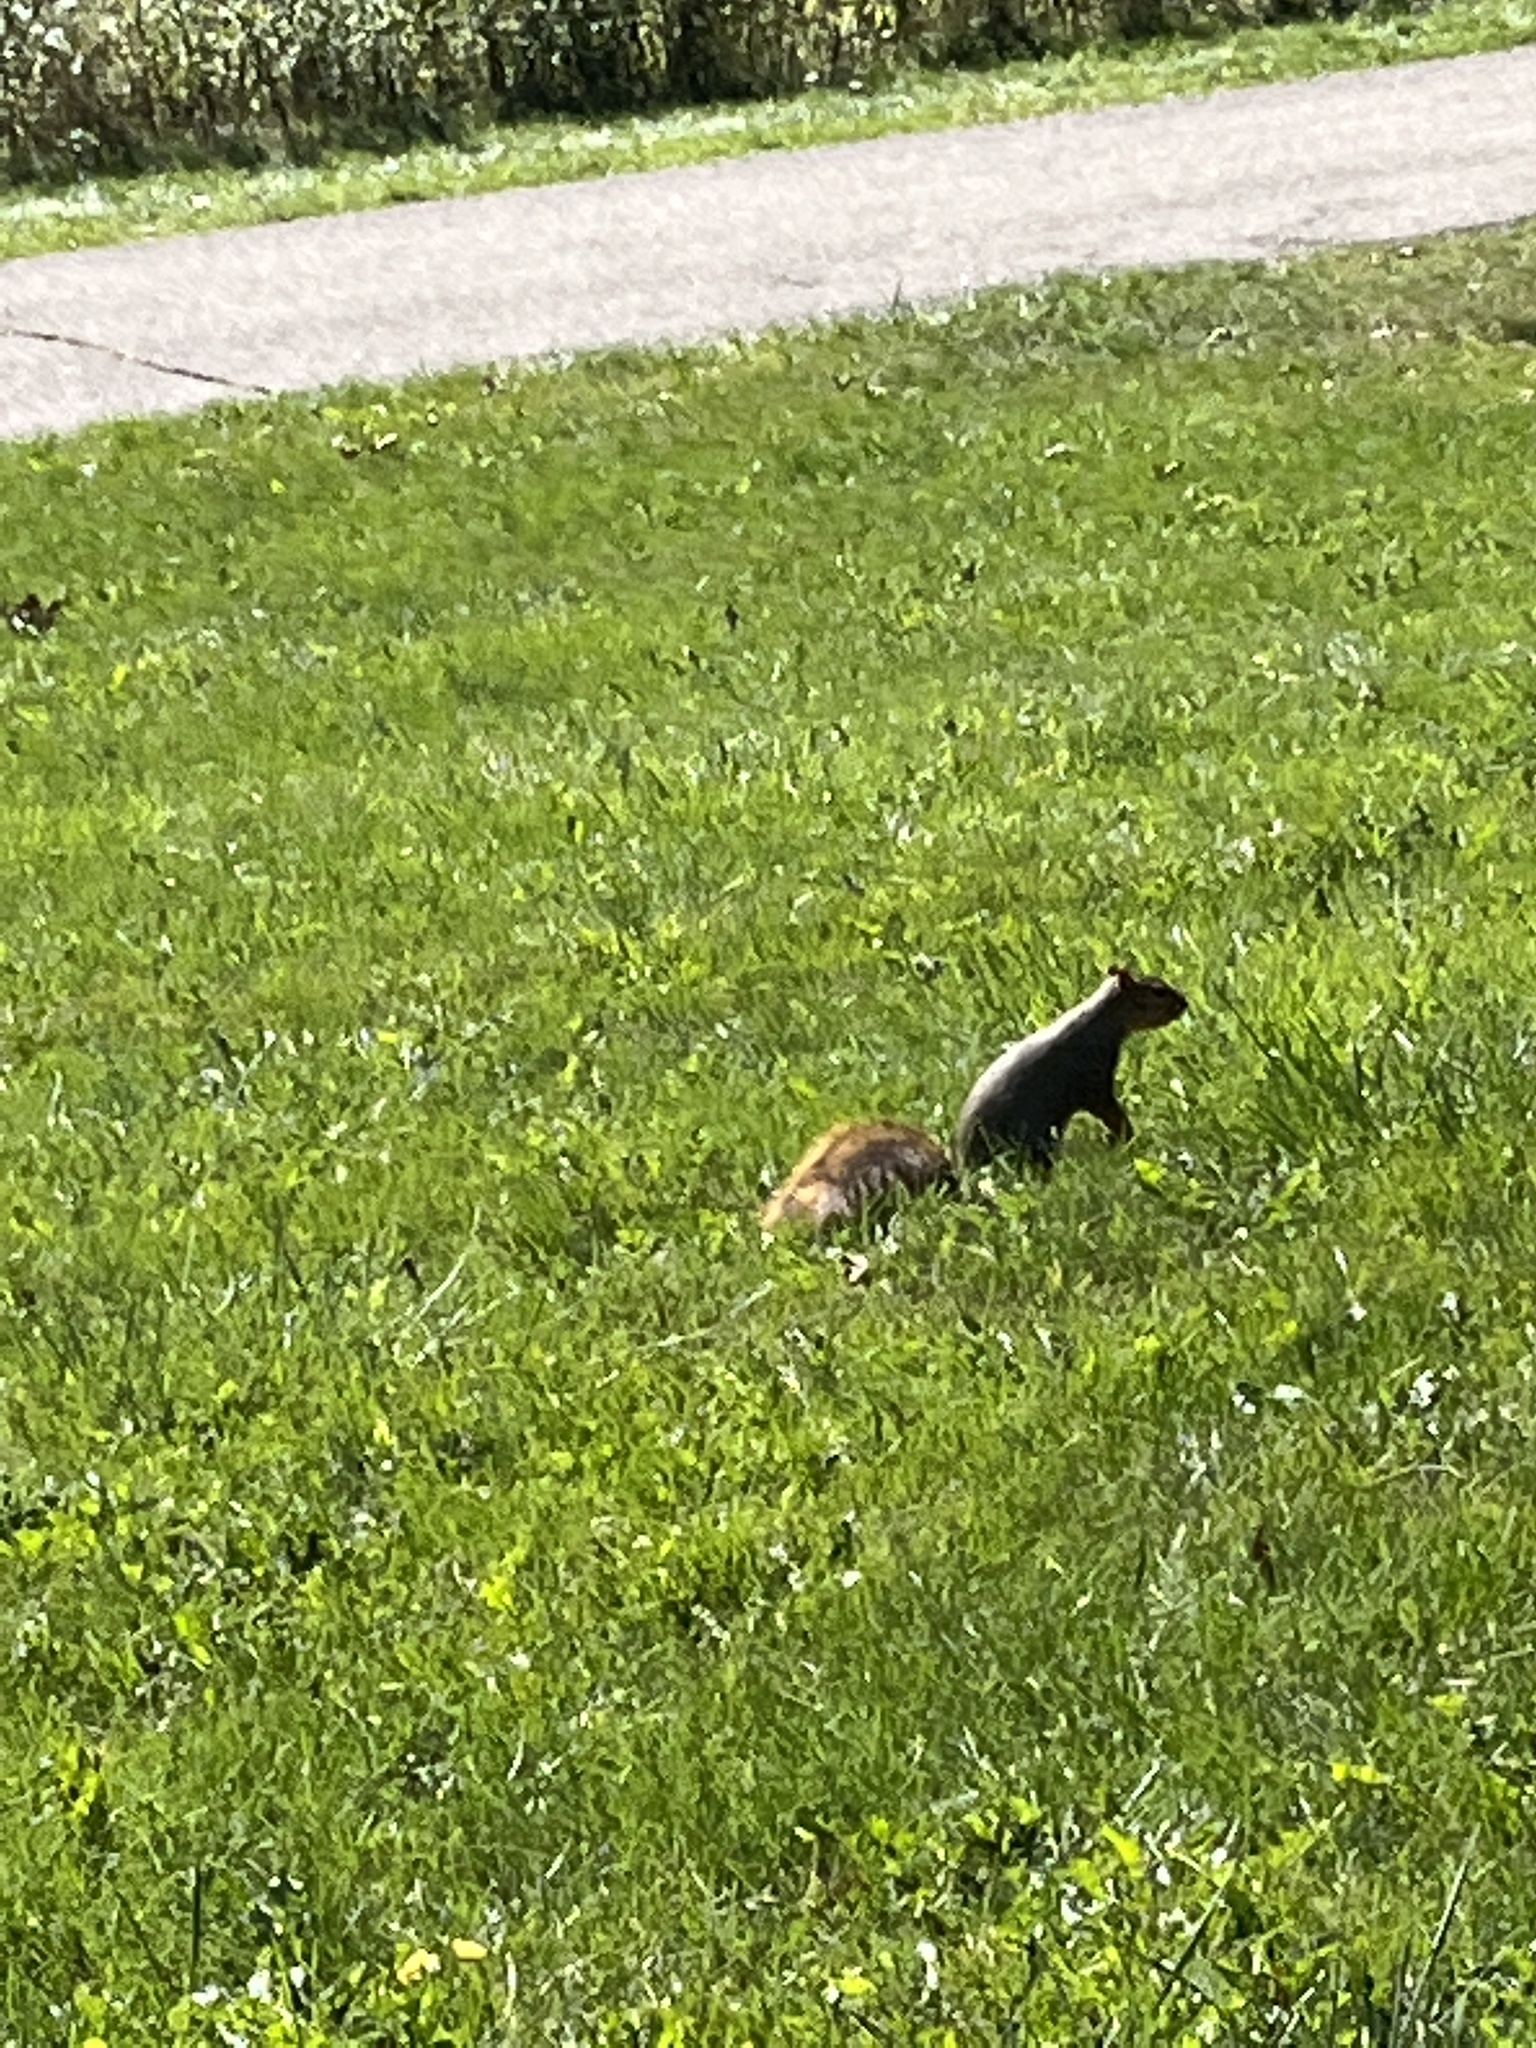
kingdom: Animalia
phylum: Chordata
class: Mammalia
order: Rodentia
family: Sciuridae
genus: Sciurus
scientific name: Sciurus niger
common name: Fox squirrel
